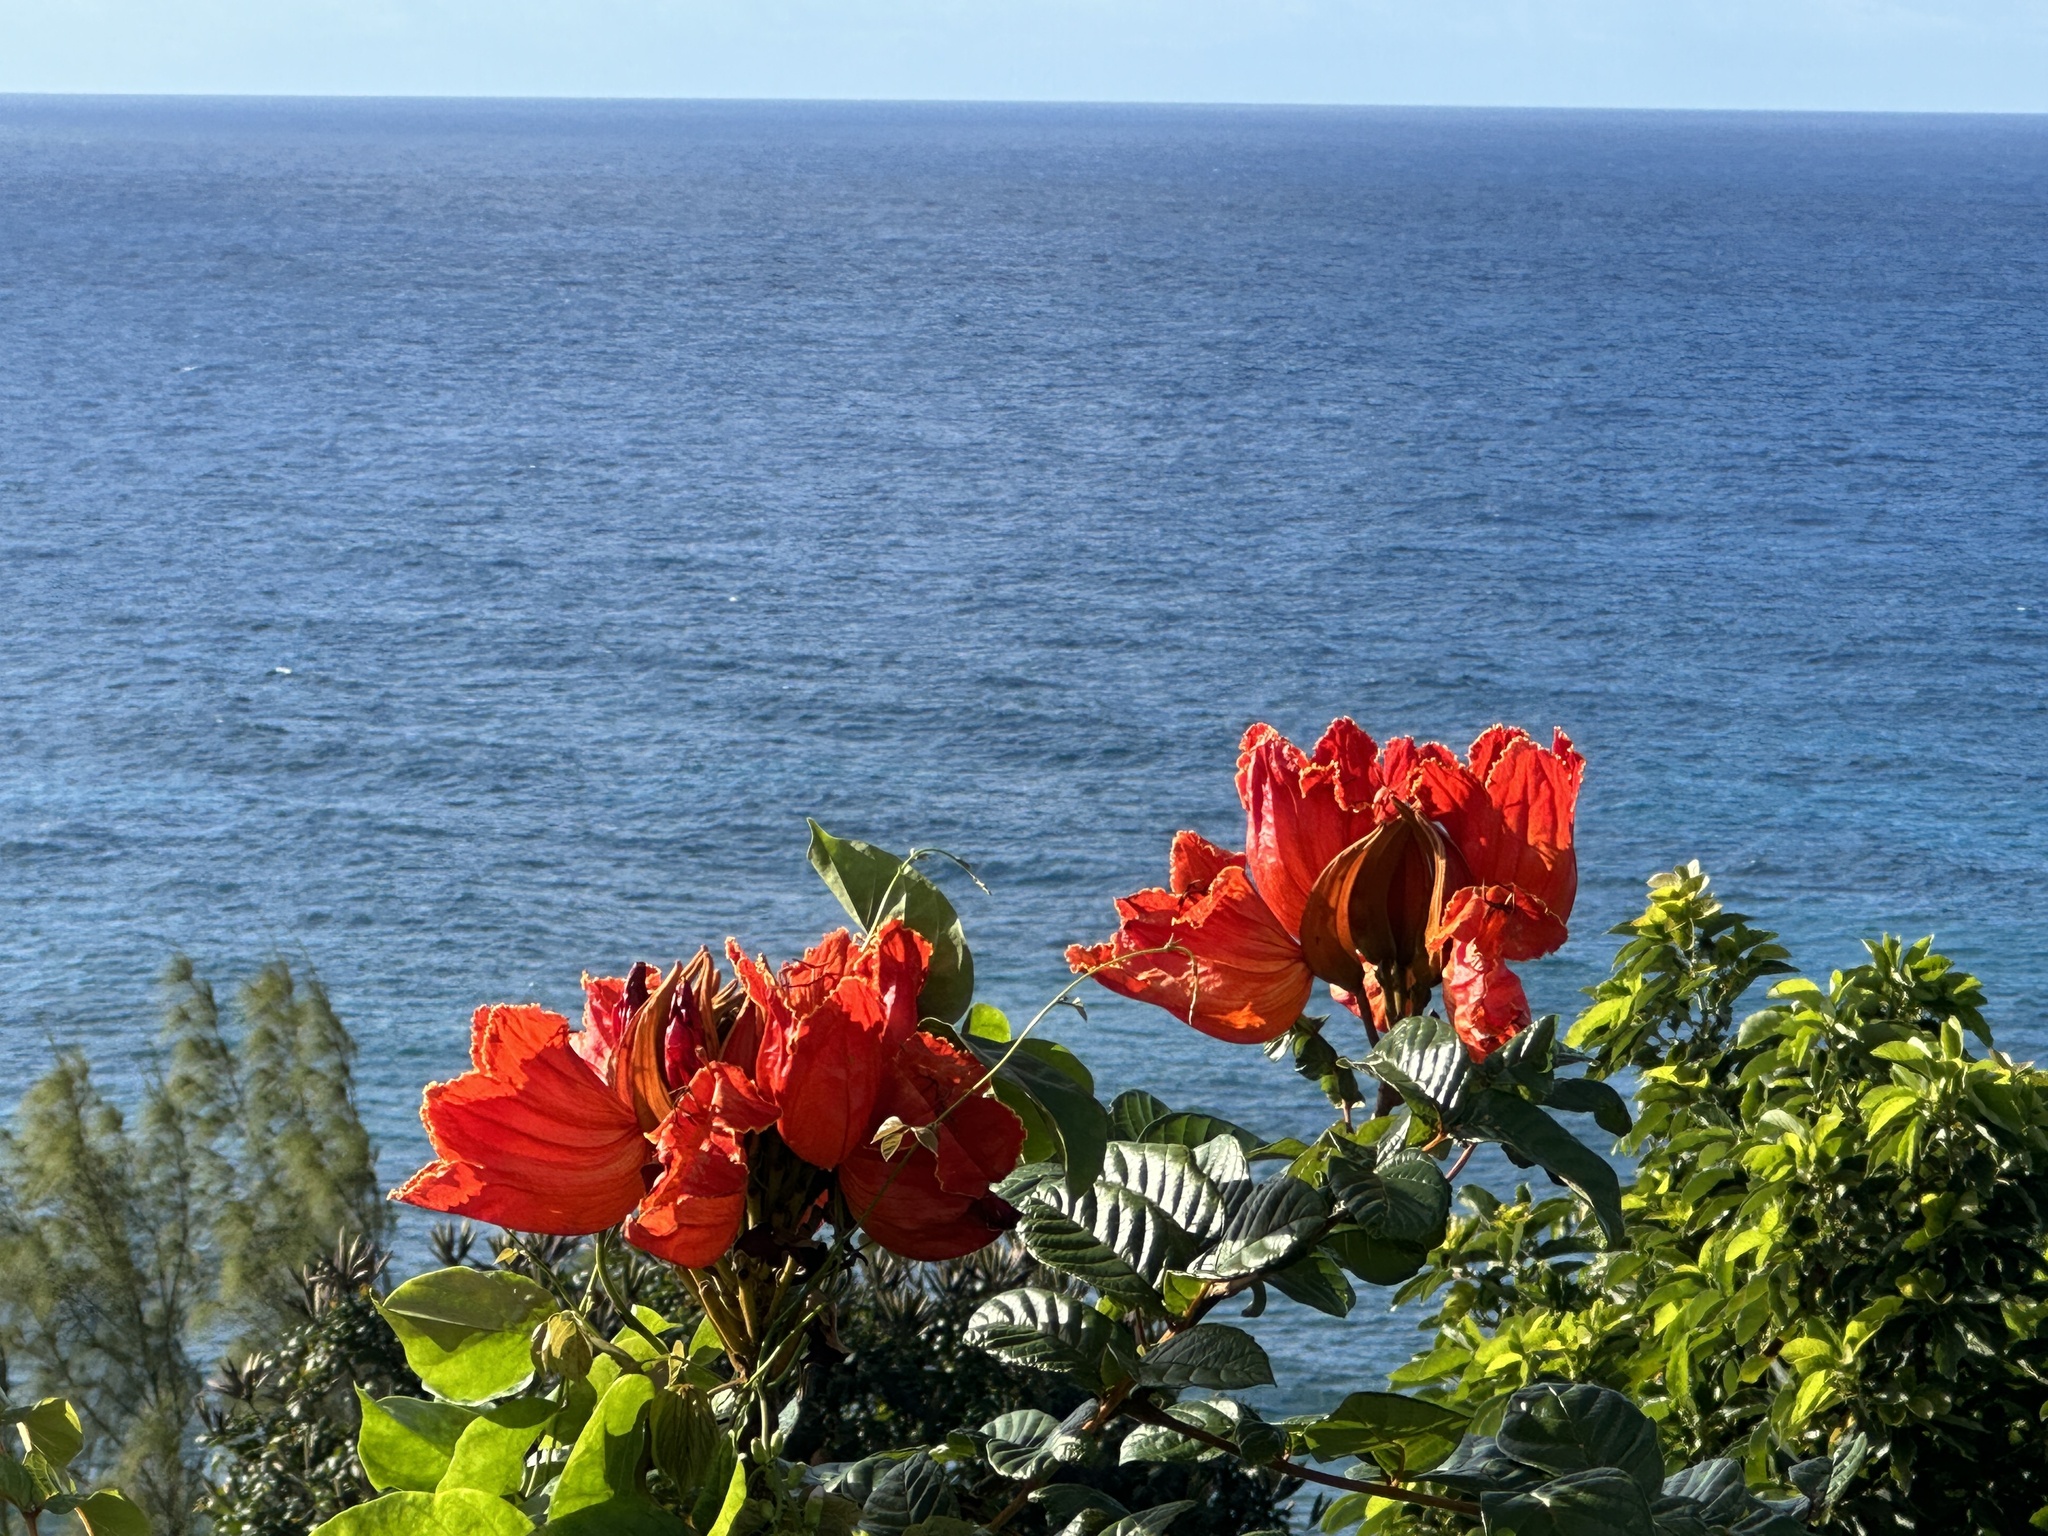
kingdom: Plantae
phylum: Tracheophyta
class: Magnoliopsida
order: Lamiales
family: Bignoniaceae
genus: Spathodea
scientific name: Spathodea campanulata
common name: African tuliptree
